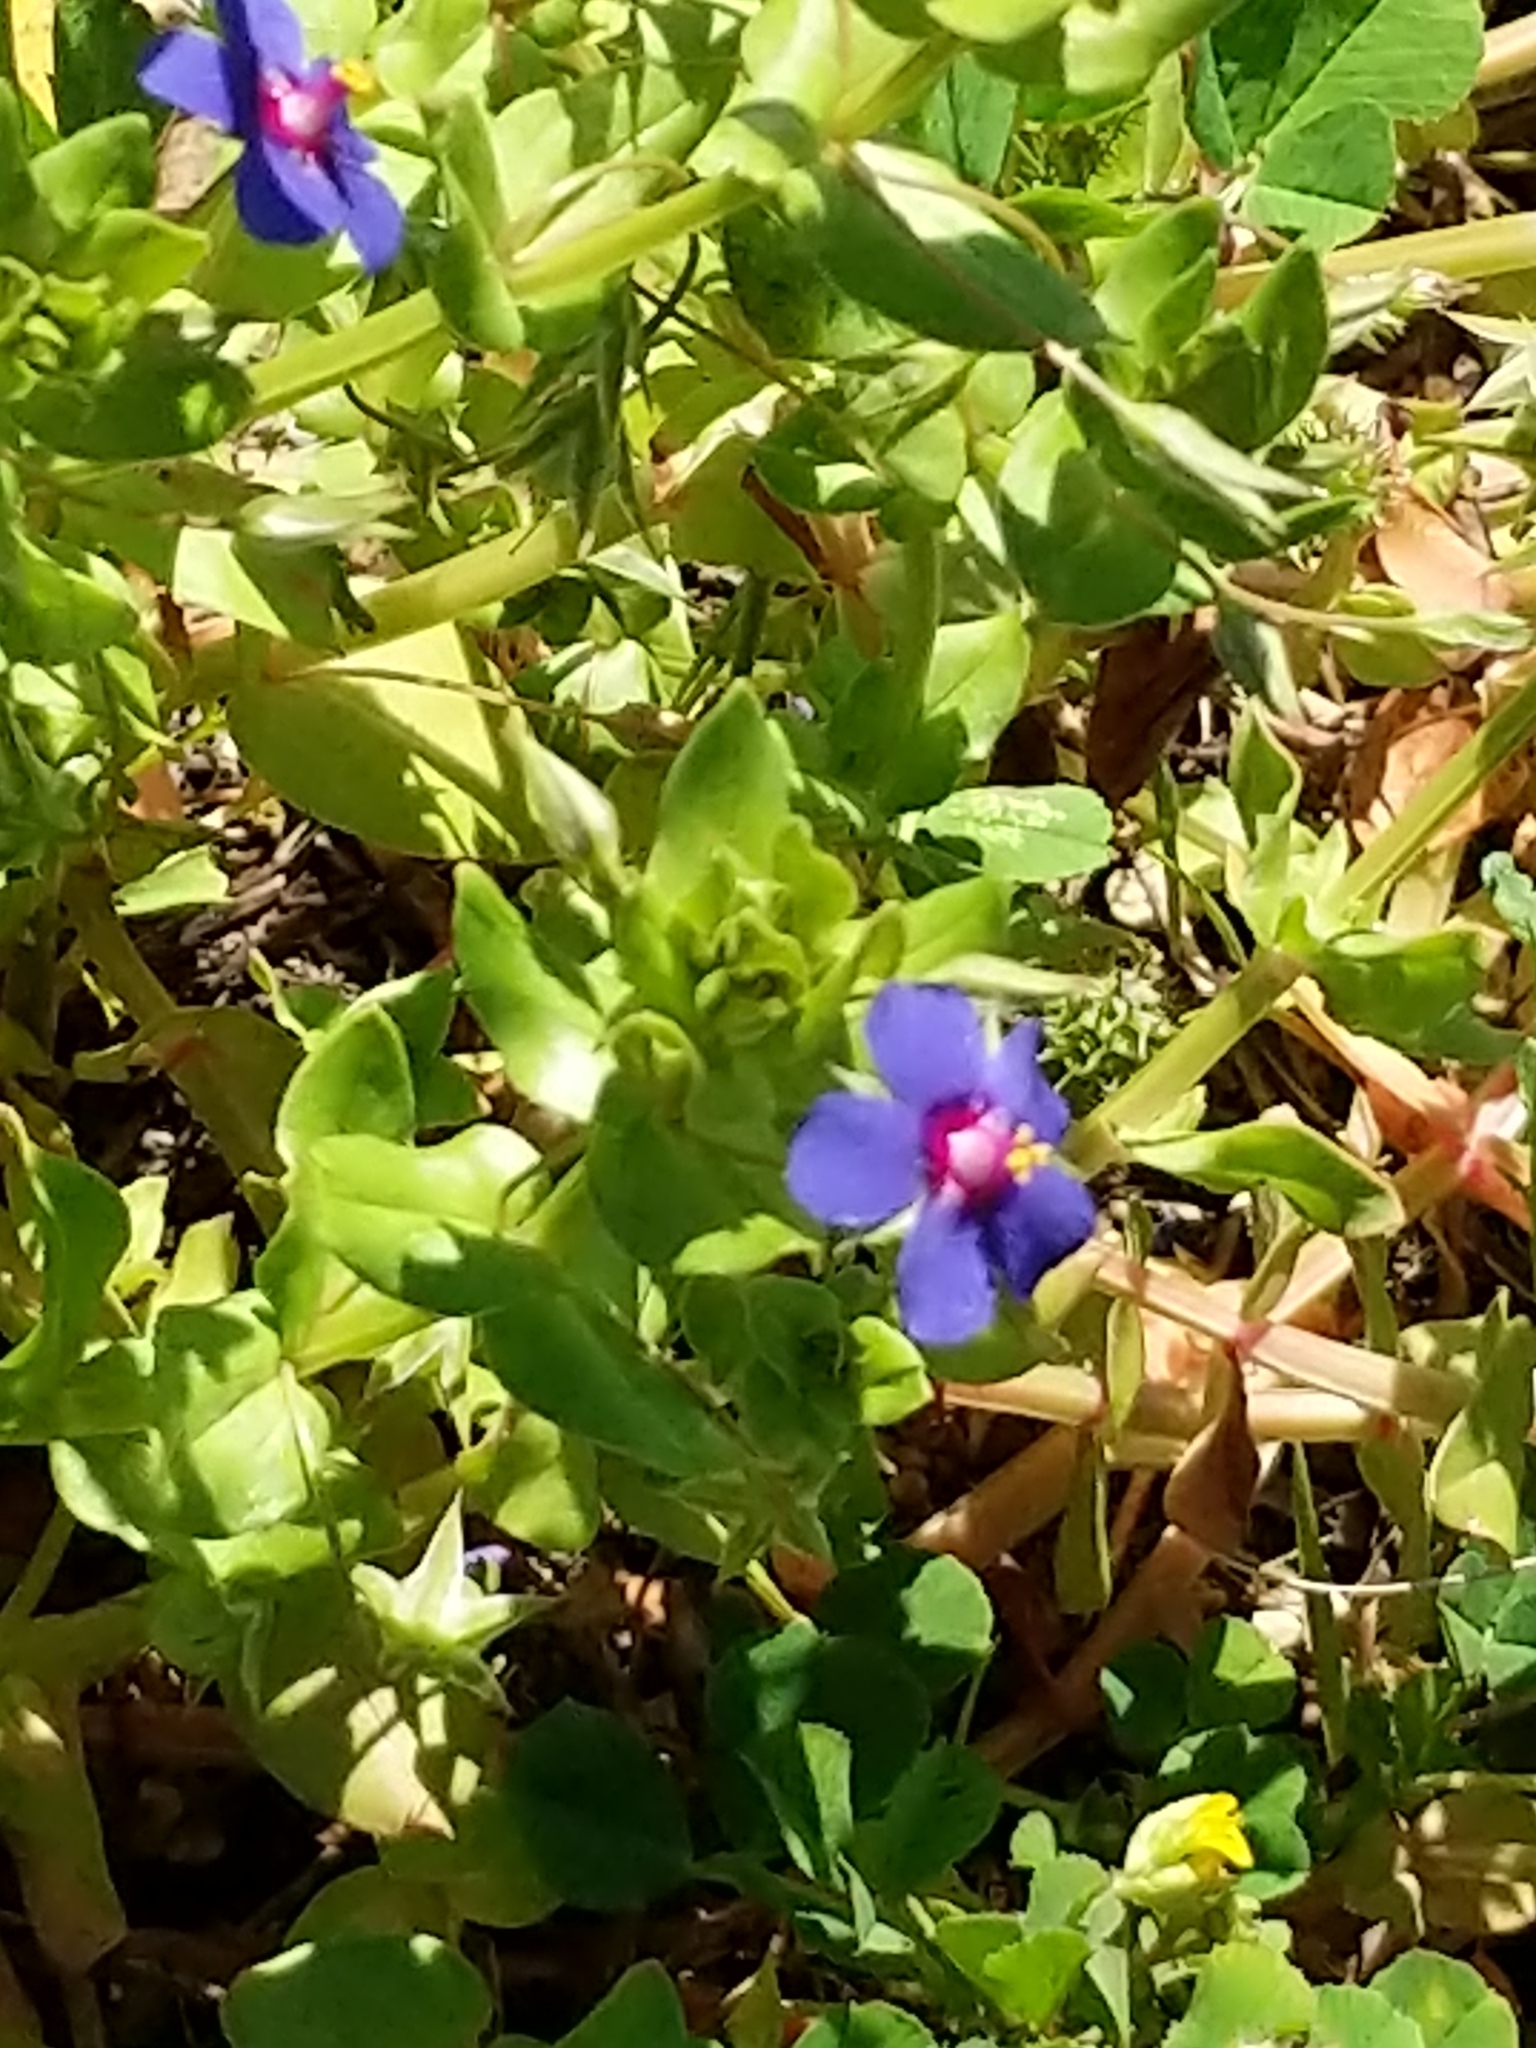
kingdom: Plantae
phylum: Tracheophyta
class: Magnoliopsida
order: Ericales
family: Primulaceae
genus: Lysimachia
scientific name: Lysimachia loeflingii
